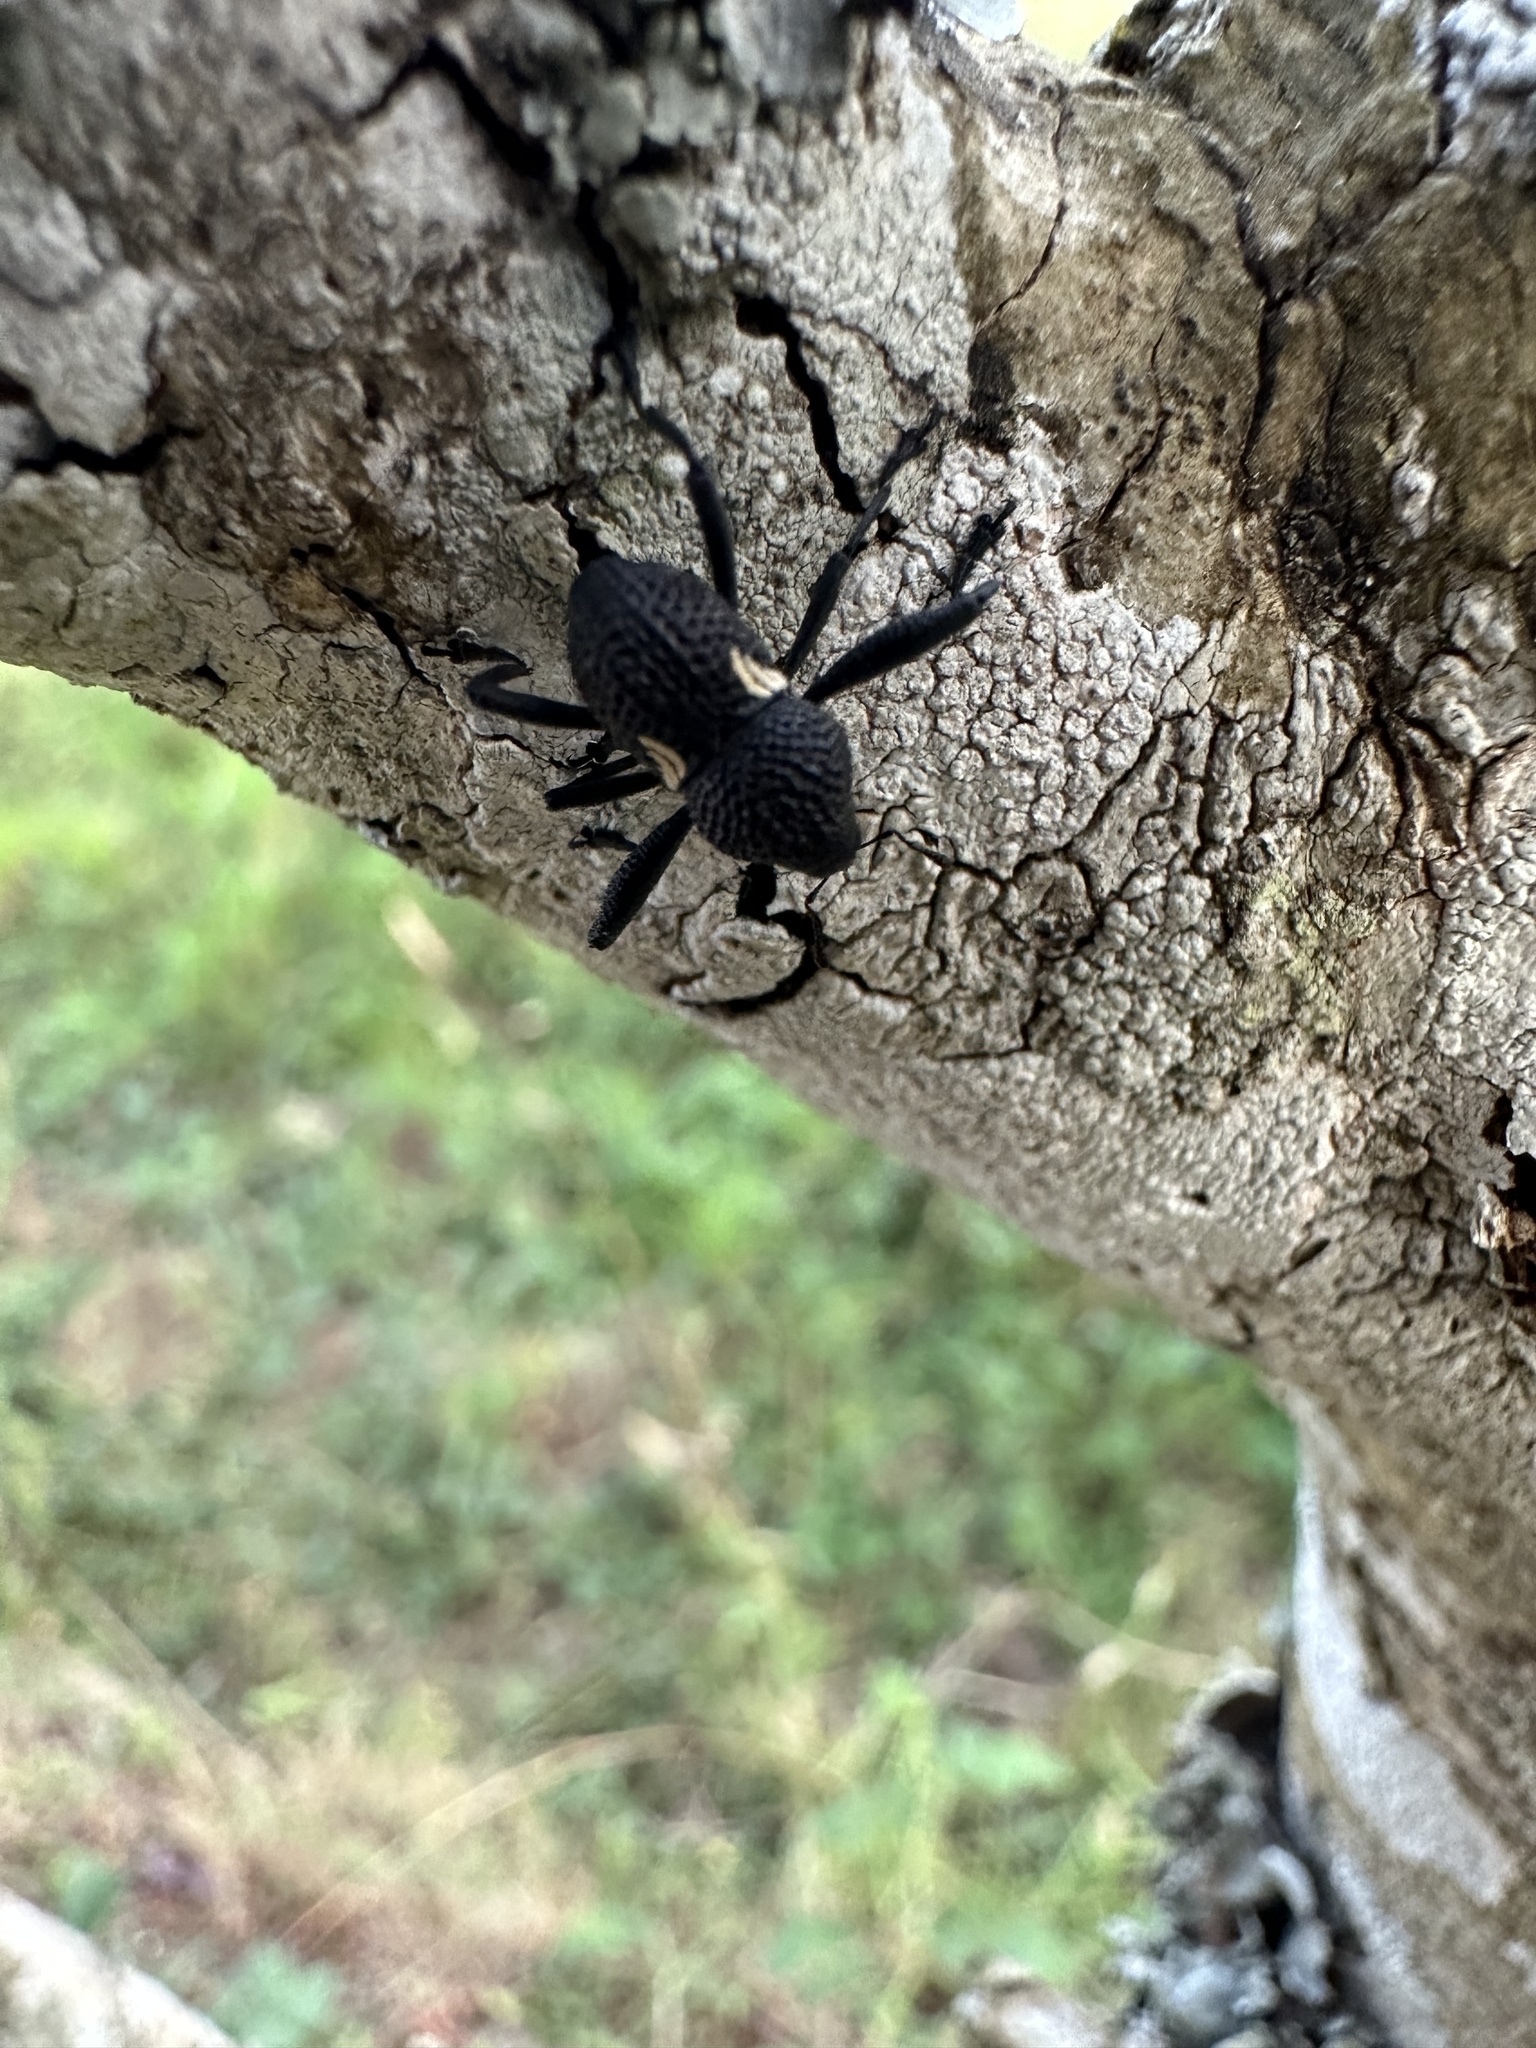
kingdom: Animalia
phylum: Arthropoda
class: Insecta
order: Coleoptera
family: Curculionidae
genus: Rhyephenes
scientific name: Rhyephenes humeralis
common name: Araè±ita chilena del pino
